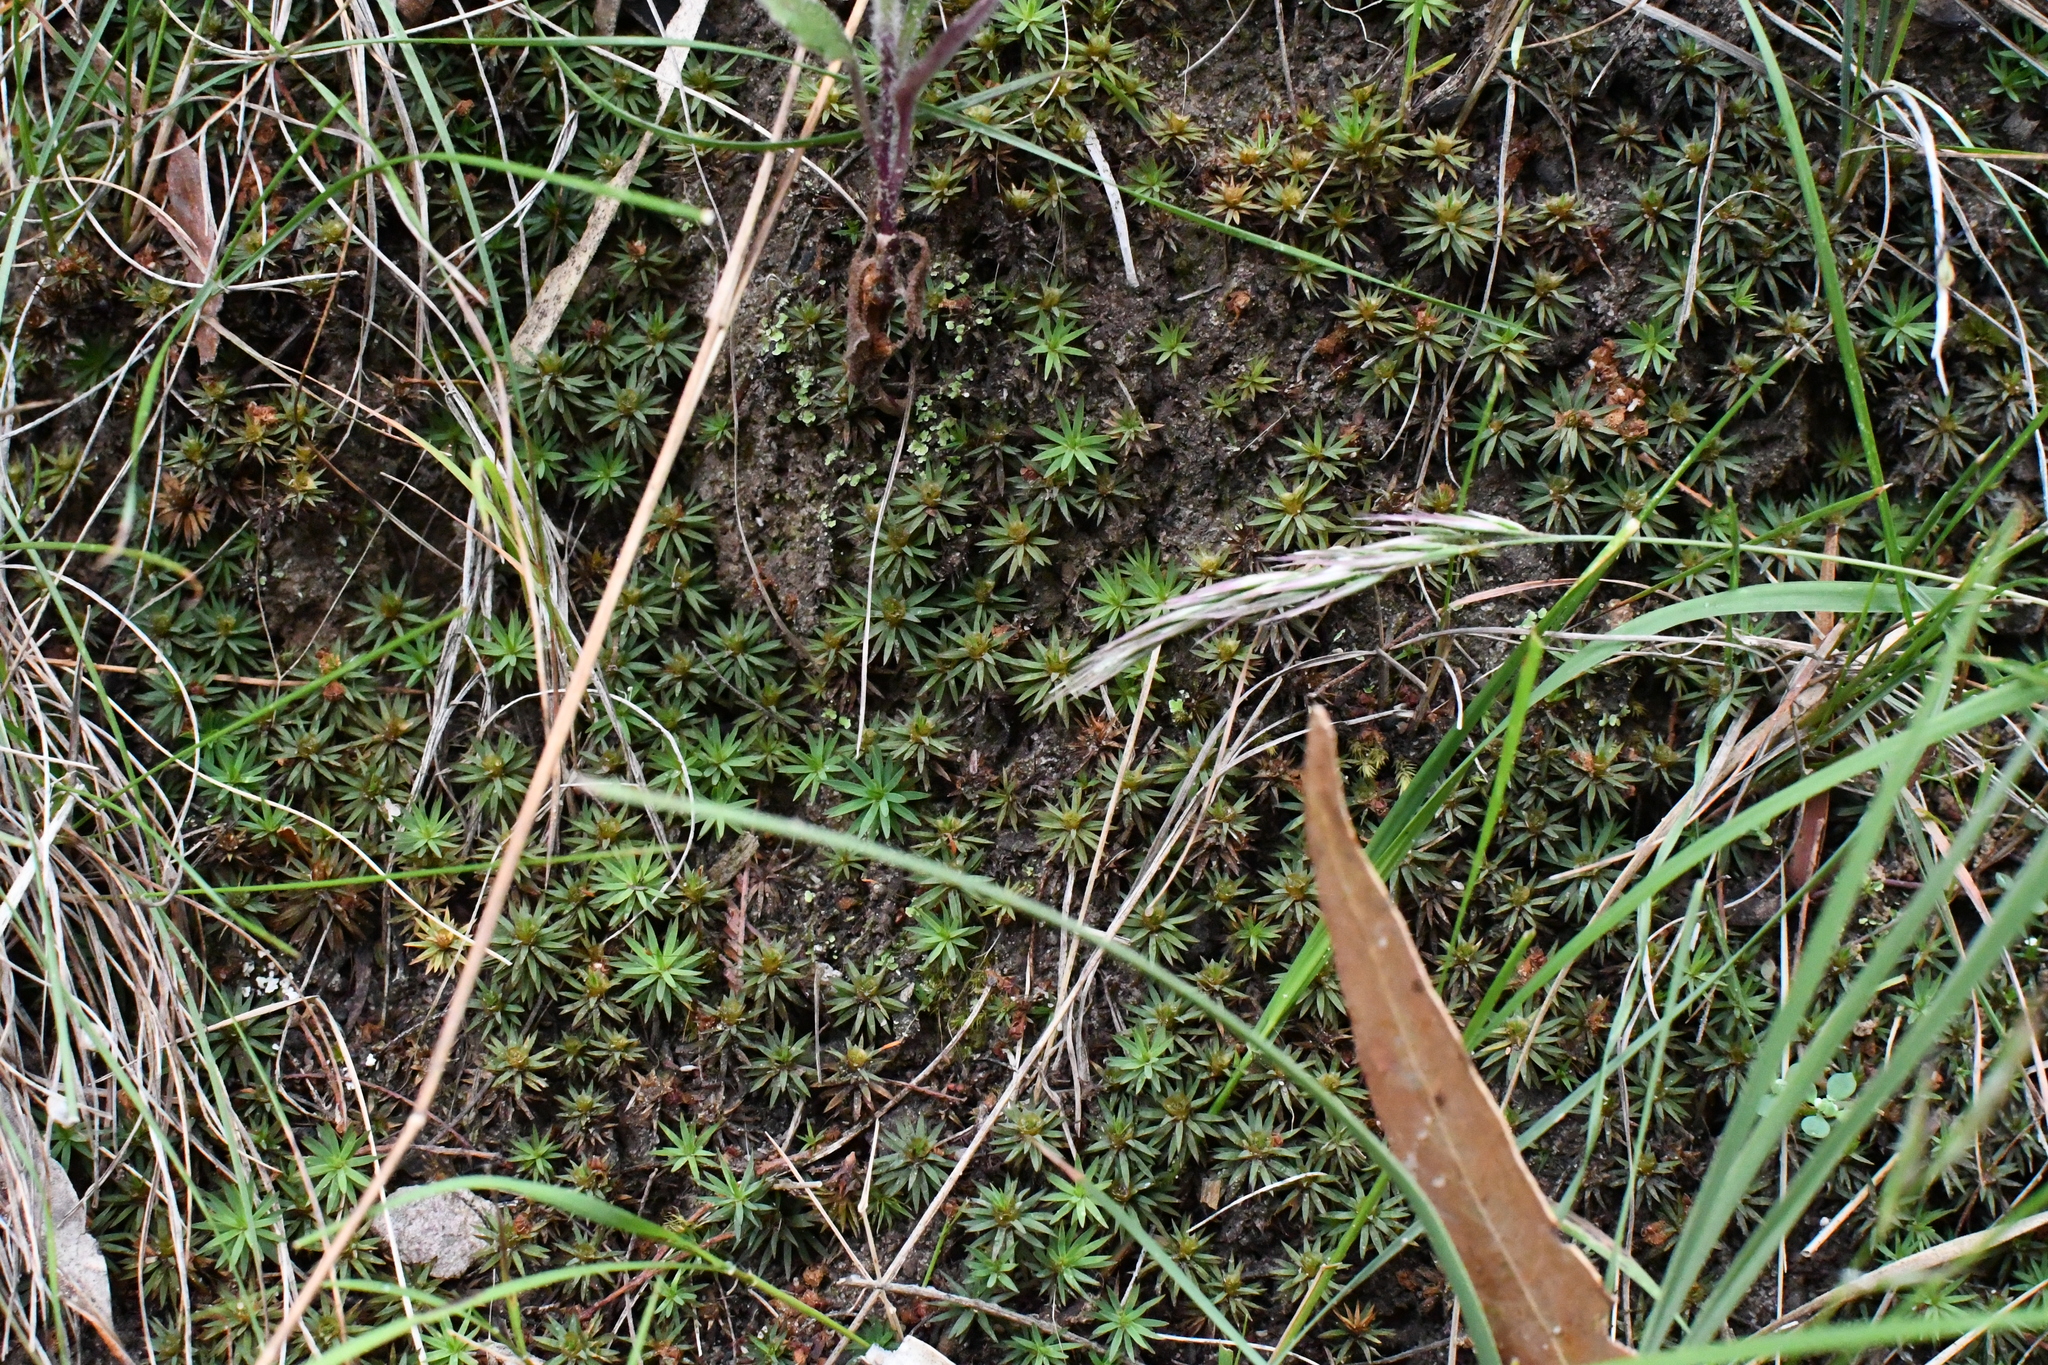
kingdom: Plantae
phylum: Bryophyta
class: Polytrichopsida
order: Polytrichales
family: Polytrichaceae
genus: Dawsonia
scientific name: Dawsonia longiseta
